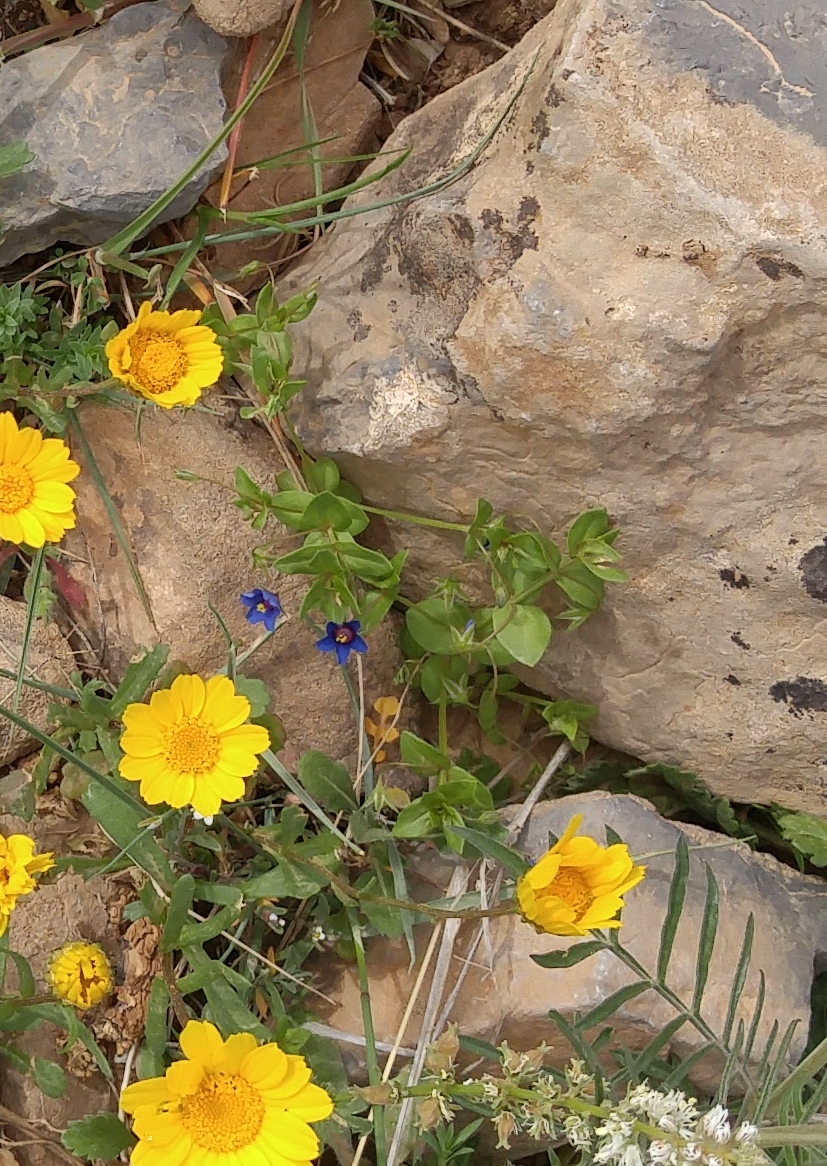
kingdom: Plantae
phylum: Tracheophyta
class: Magnoliopsida
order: Ericales
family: Primulaceae
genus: Lysimachia
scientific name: Lysimachia loeflingii
